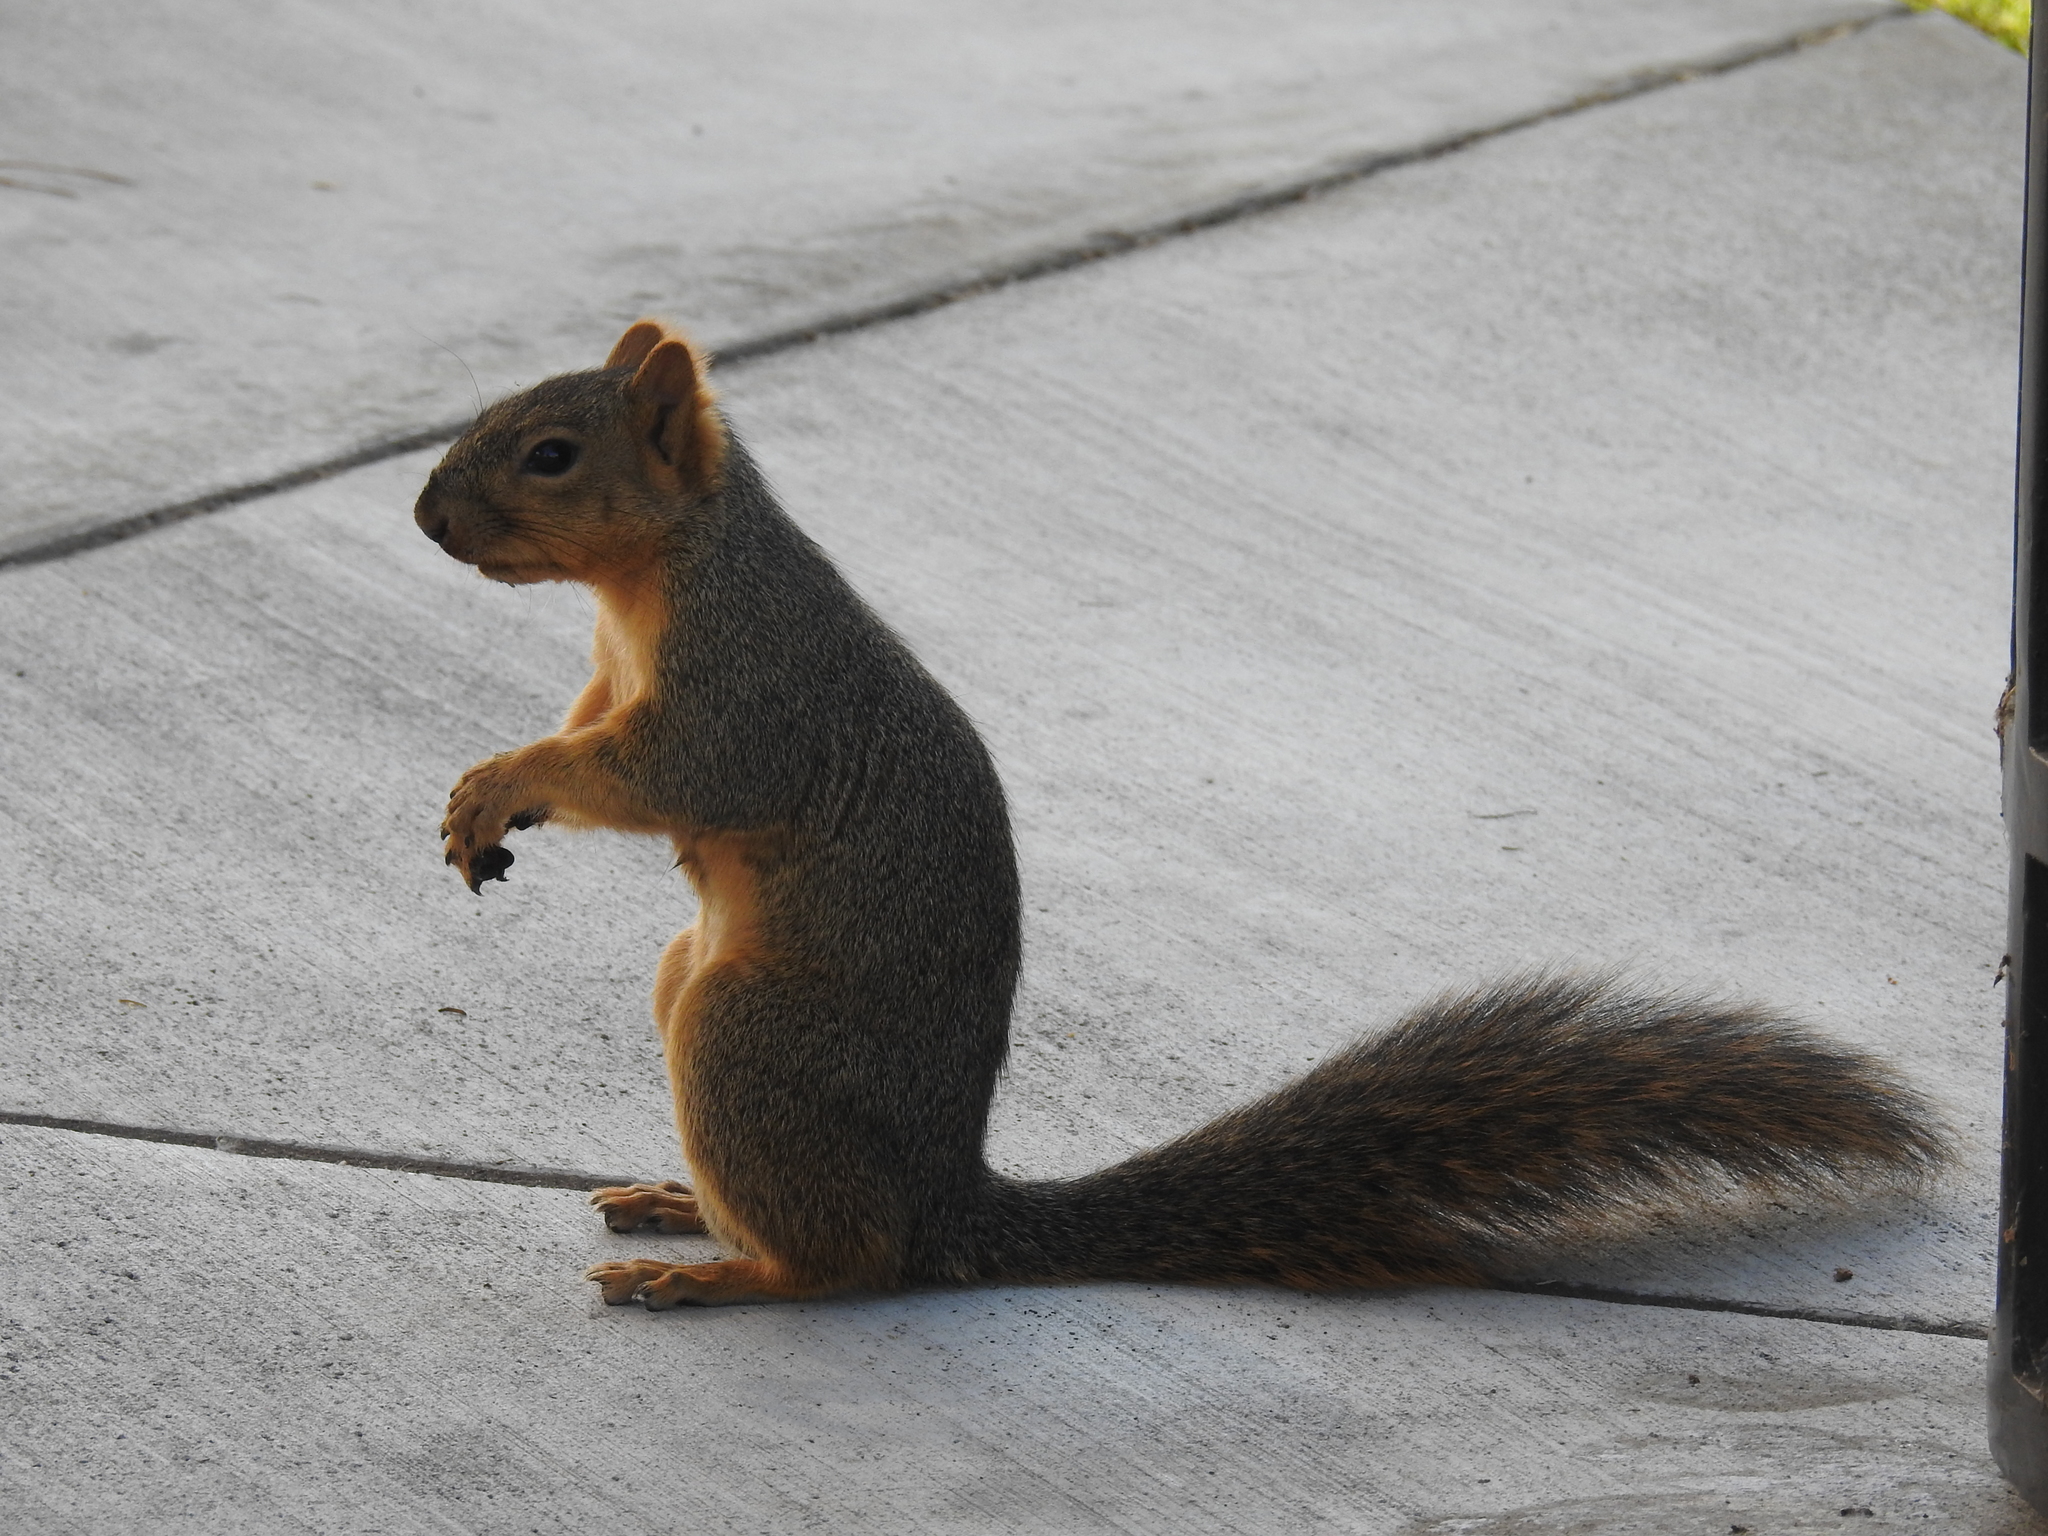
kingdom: Animalia
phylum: Chordata
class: Mammalia
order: Rodentia
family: Sciuridae
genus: Sciurus
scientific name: Sciurus niger
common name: Fox squirrel
